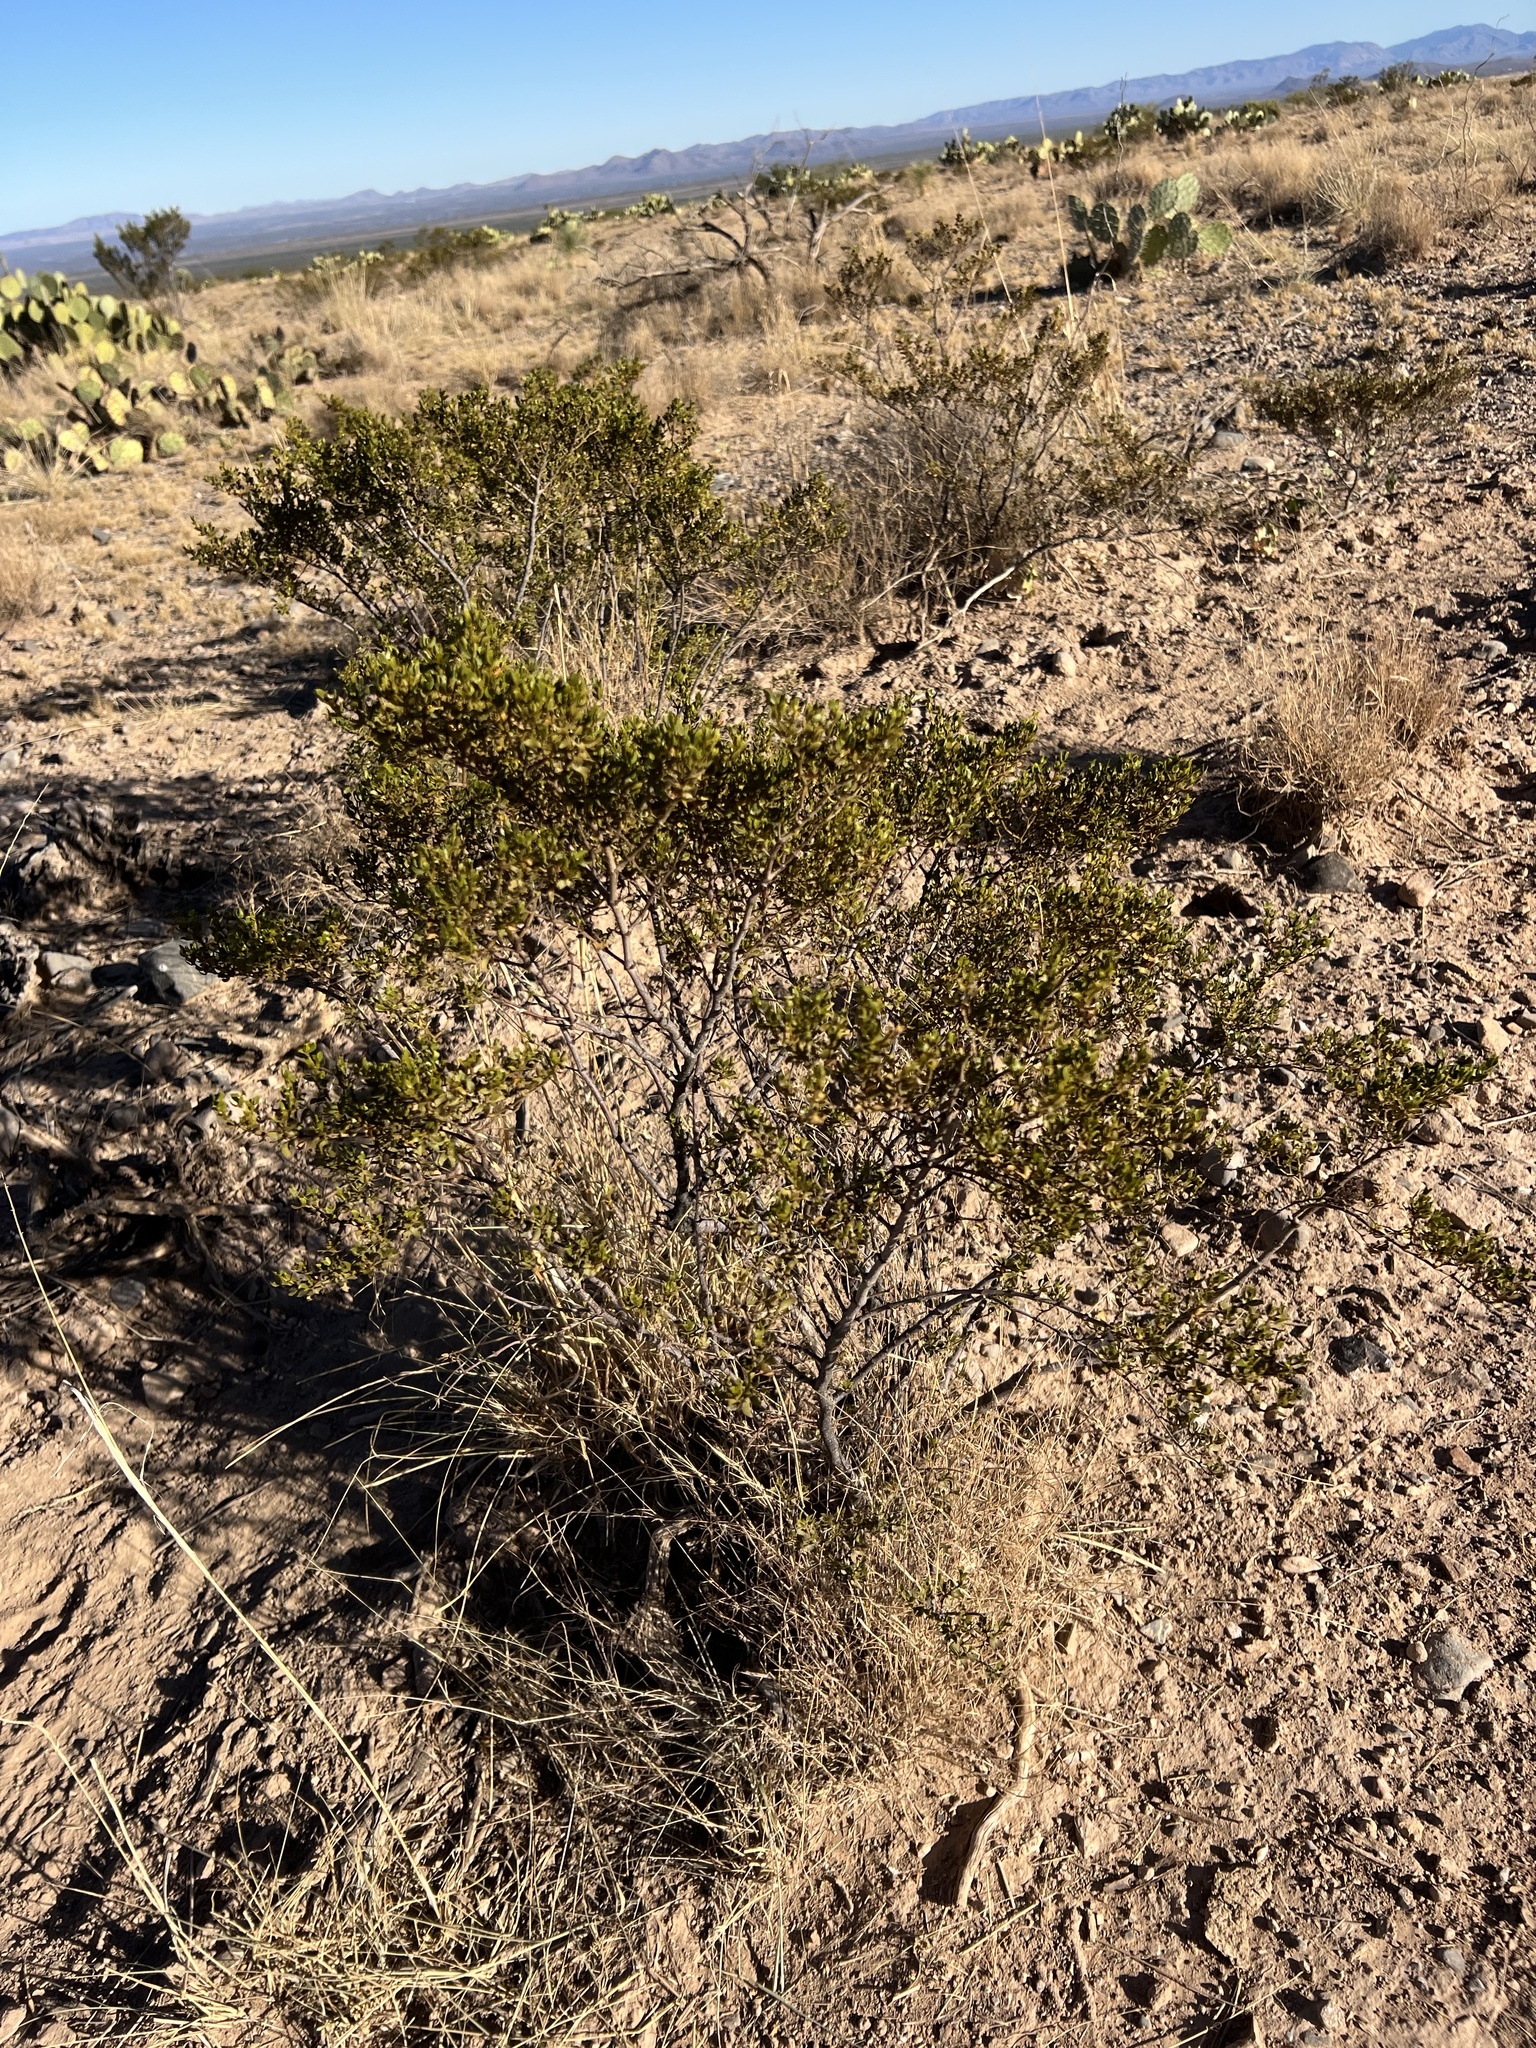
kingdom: Plantae
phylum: Tracheophyta
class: Magnoliopsida
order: Zygophyllales
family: Zygophyllaceae
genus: Larrea
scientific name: Larrea tridentata
